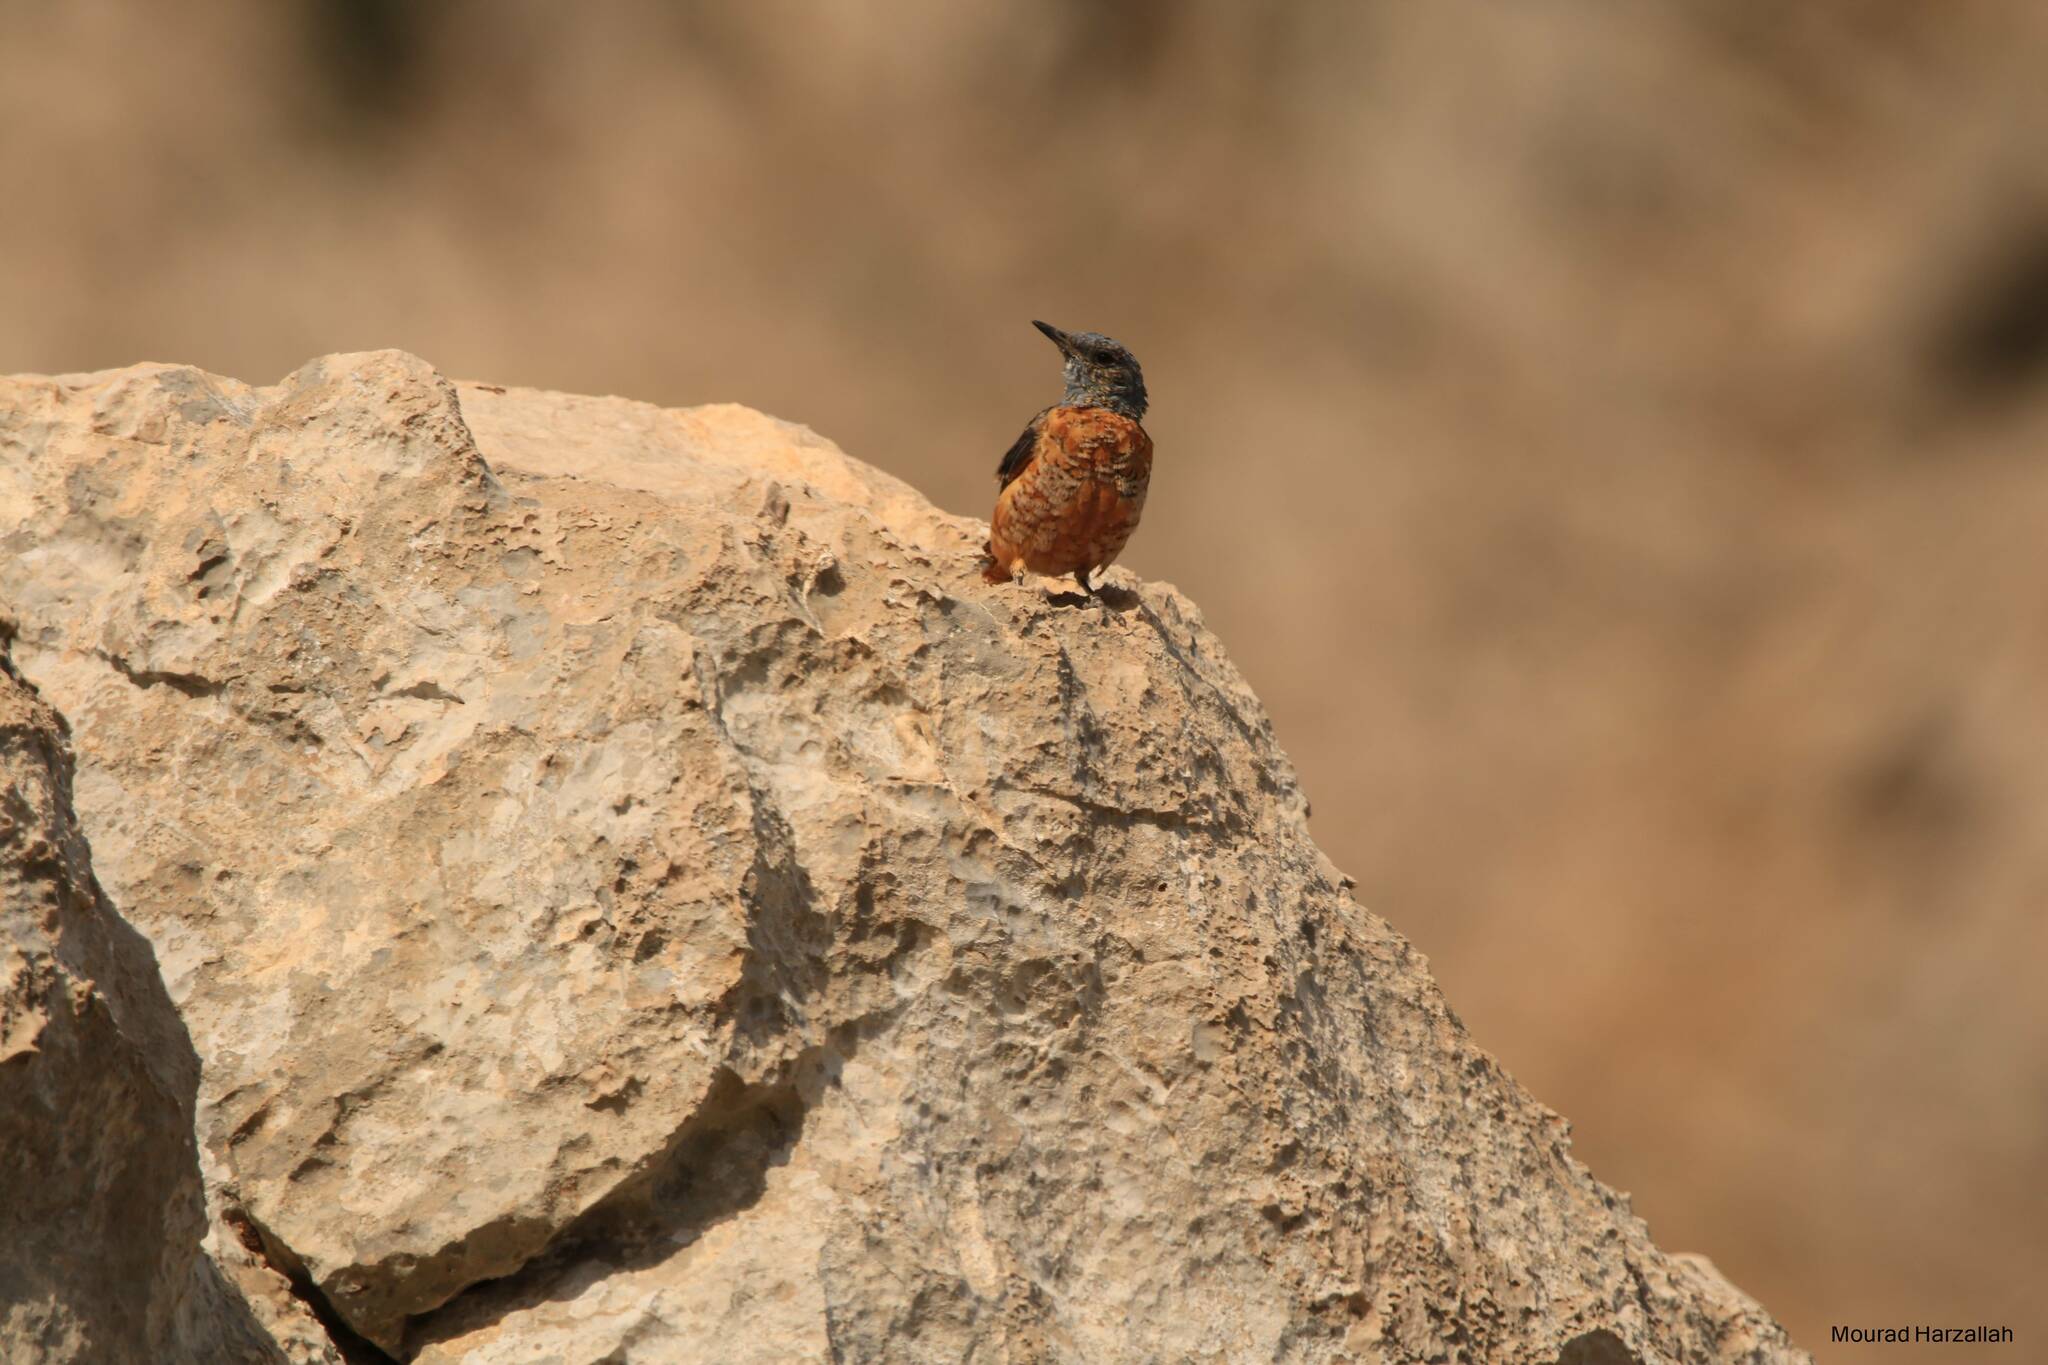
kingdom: Animalia
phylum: Chordata
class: Aves
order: Passeriformes
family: Muscicapidae
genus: Monticola
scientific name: Monticola saxatilis
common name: Rufous-tailed rock thrush
